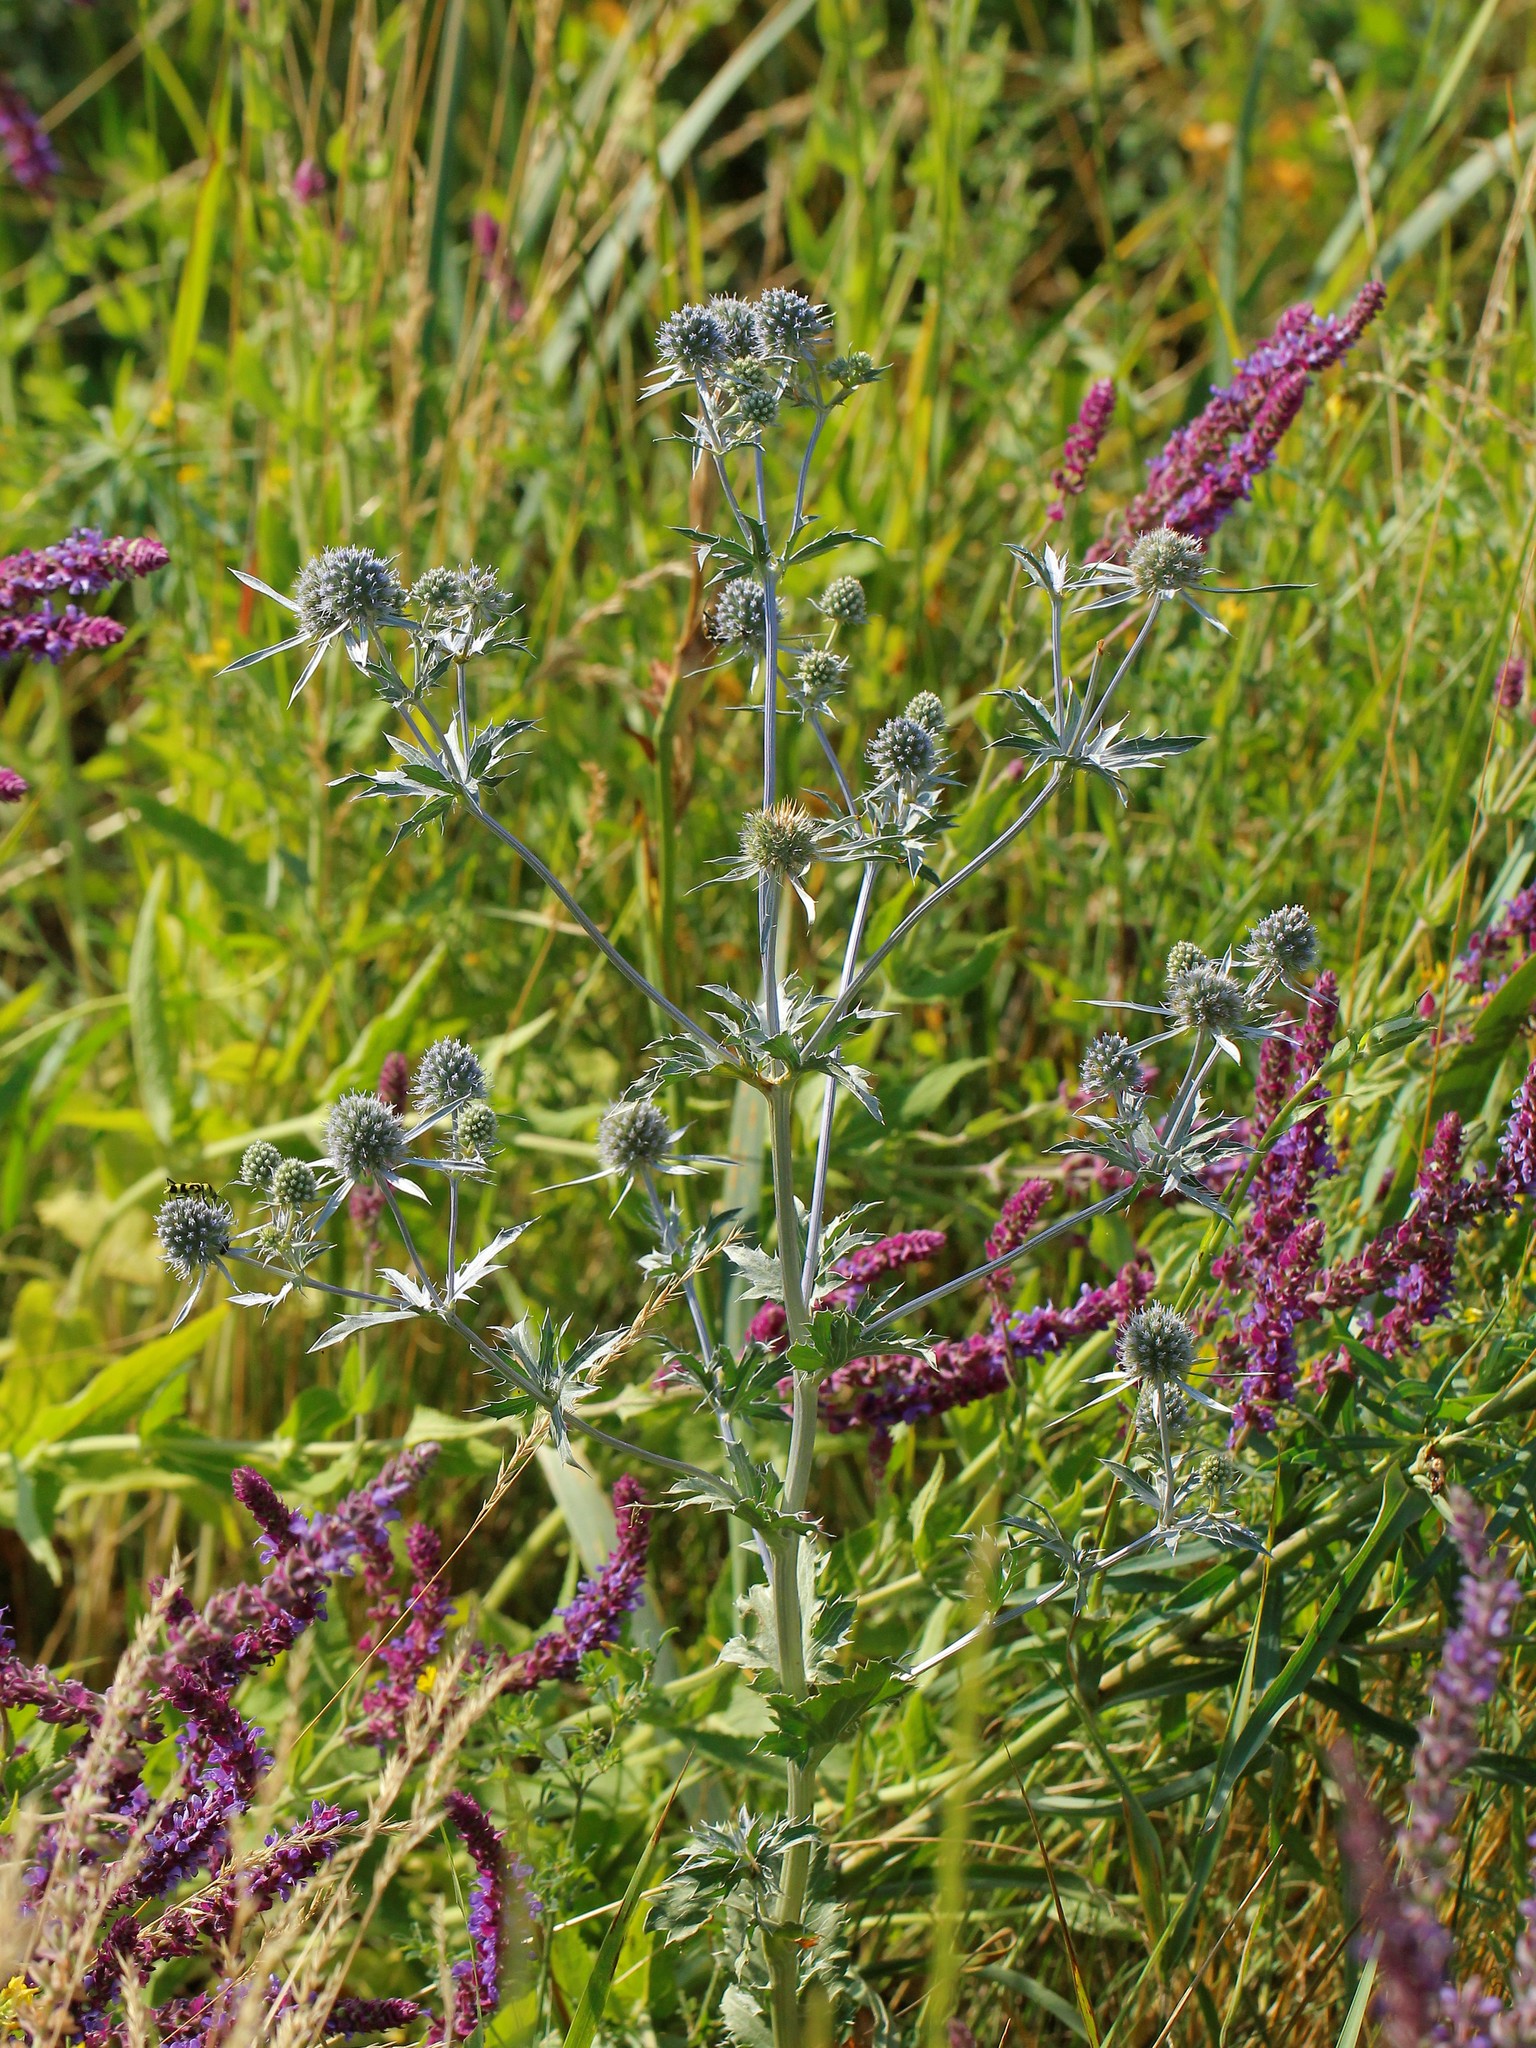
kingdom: Plantae
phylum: Tracheophyta
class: Magnoliopsida
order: Apiales
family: Apiaceae
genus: Eryngium
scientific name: Eryngium planum
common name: Blue eryngo
